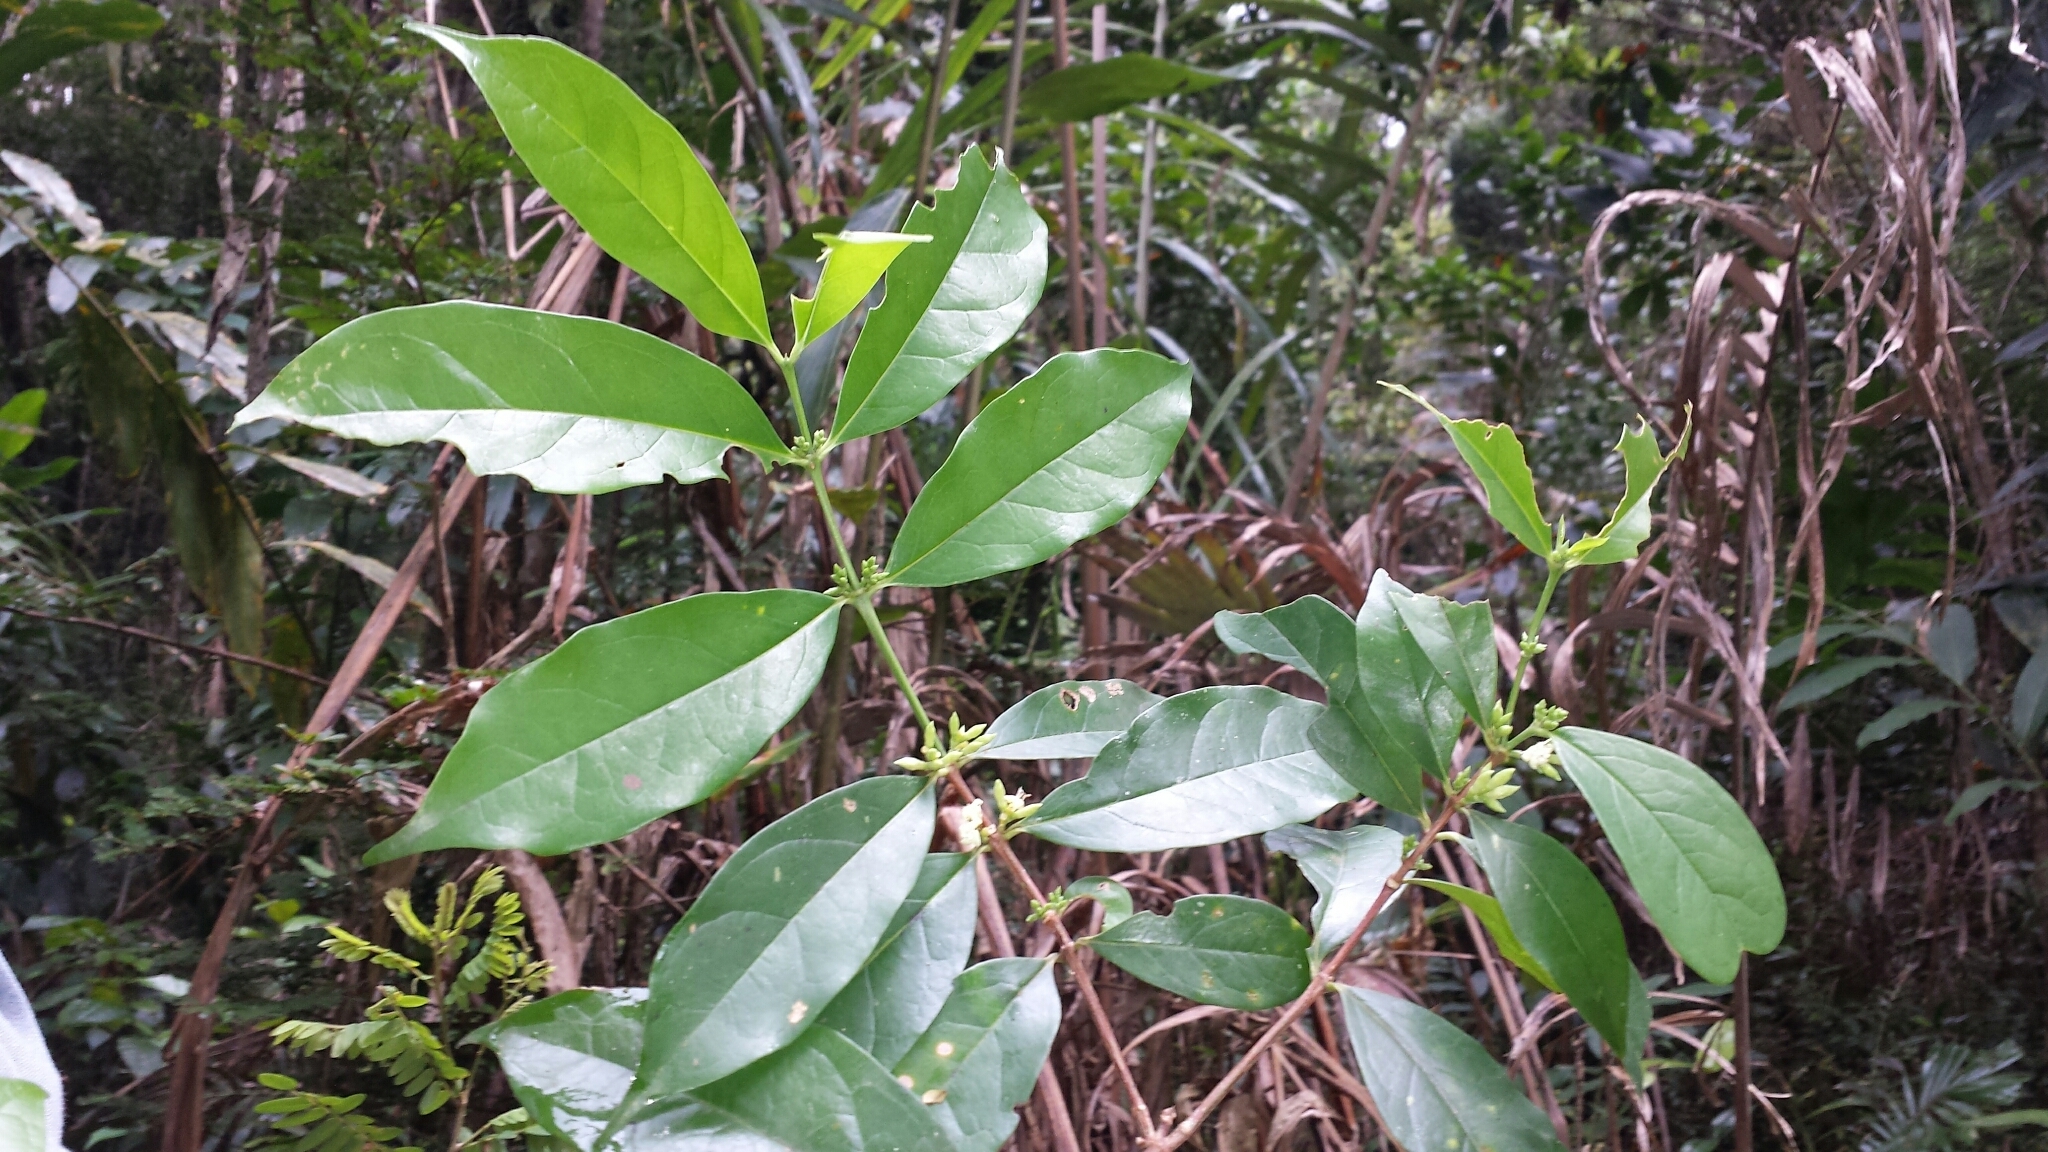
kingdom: Plantae
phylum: Tracheophyta
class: Magnoliopsida
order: Gentianales
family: Rubiaceae
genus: Tricalysia
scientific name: Tricalysia orientalis
